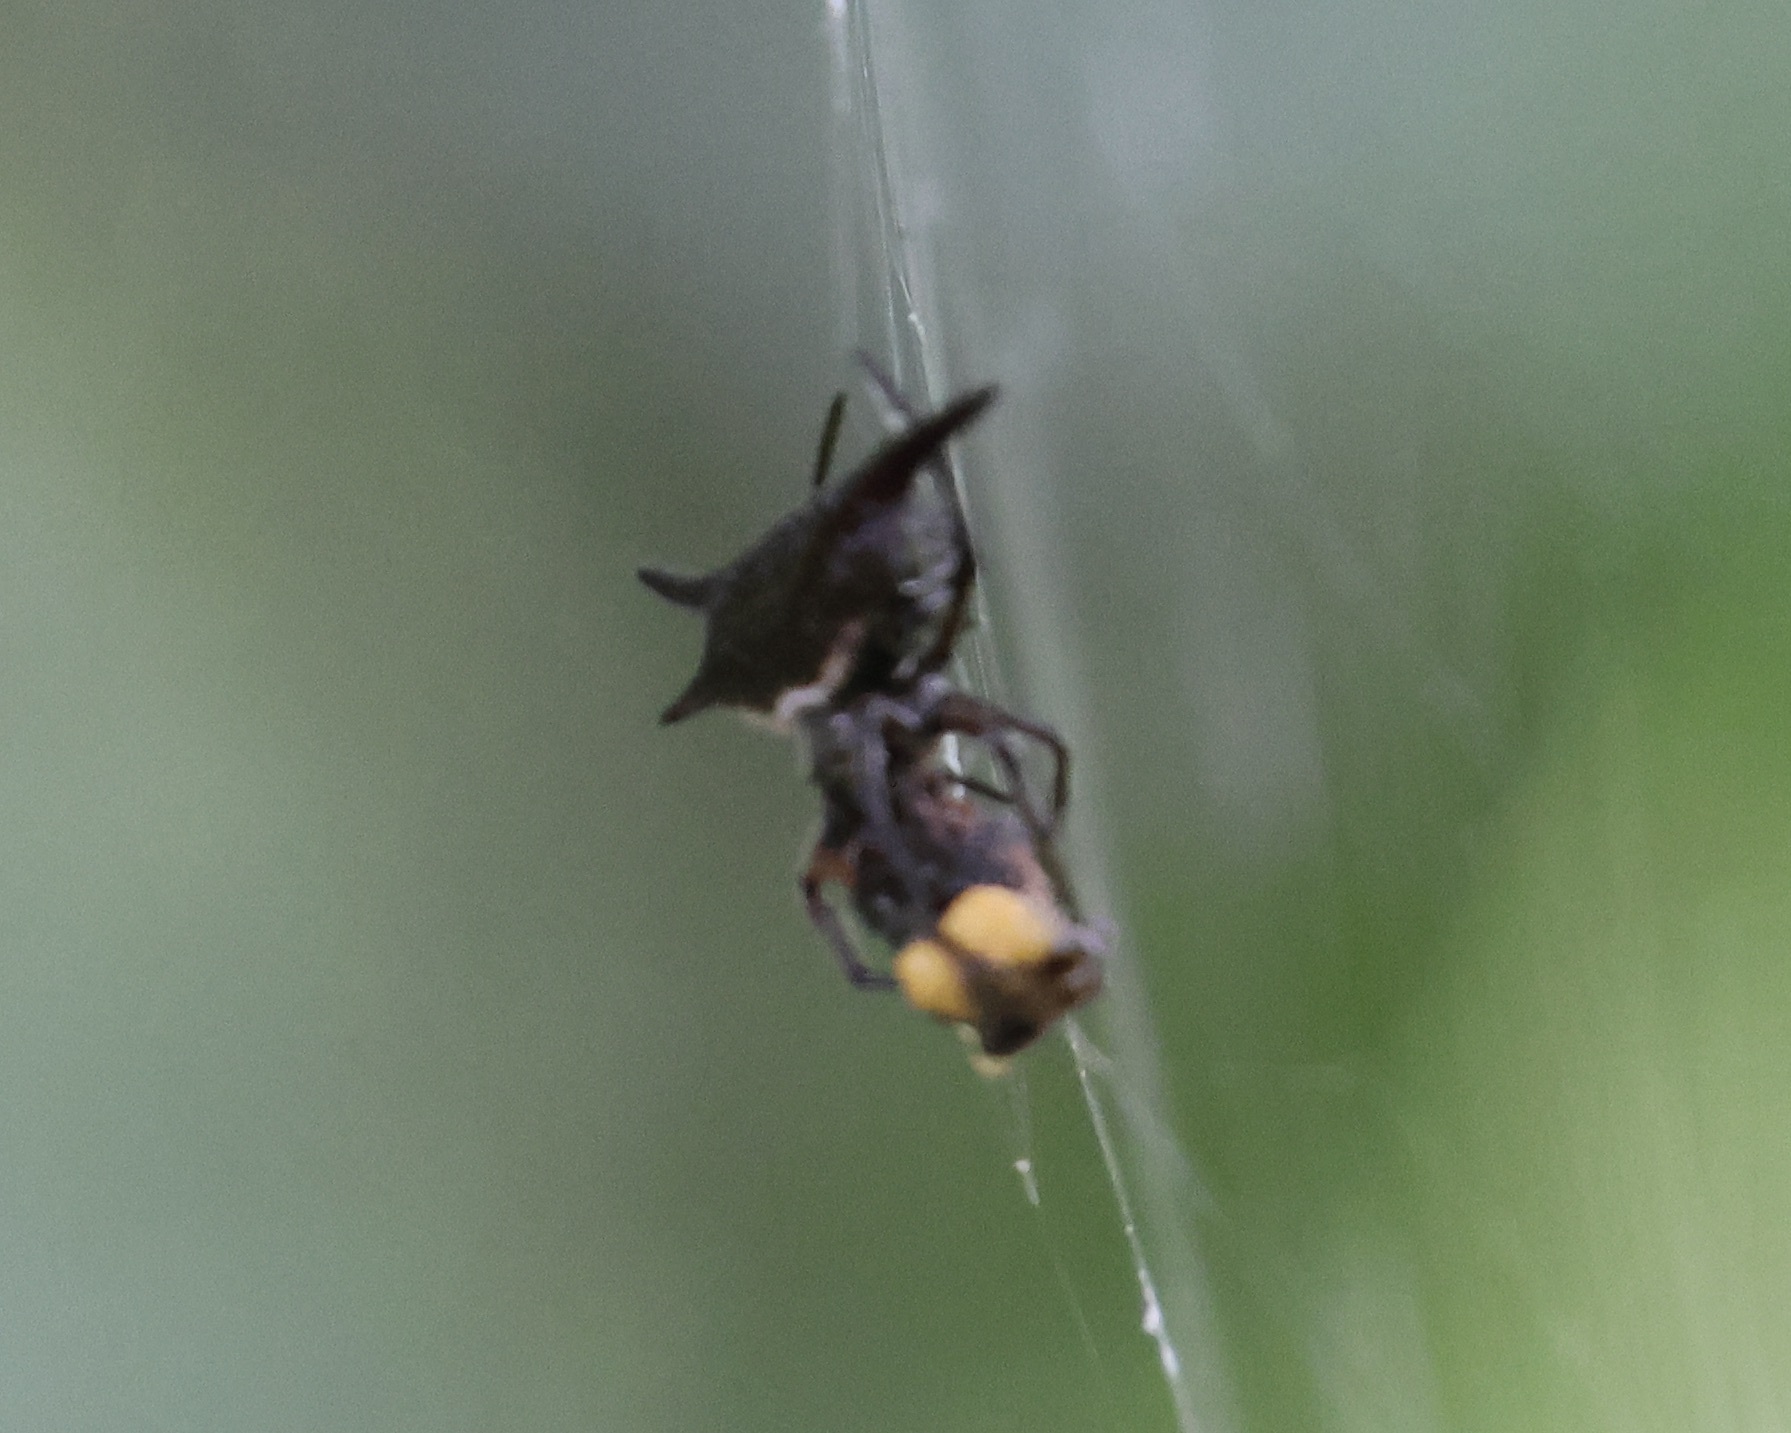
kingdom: Animalia
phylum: Arthropoda
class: Arachnida
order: Araneae
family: Araneidae
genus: Gasteracantha
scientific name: Gasteracantha mengei
